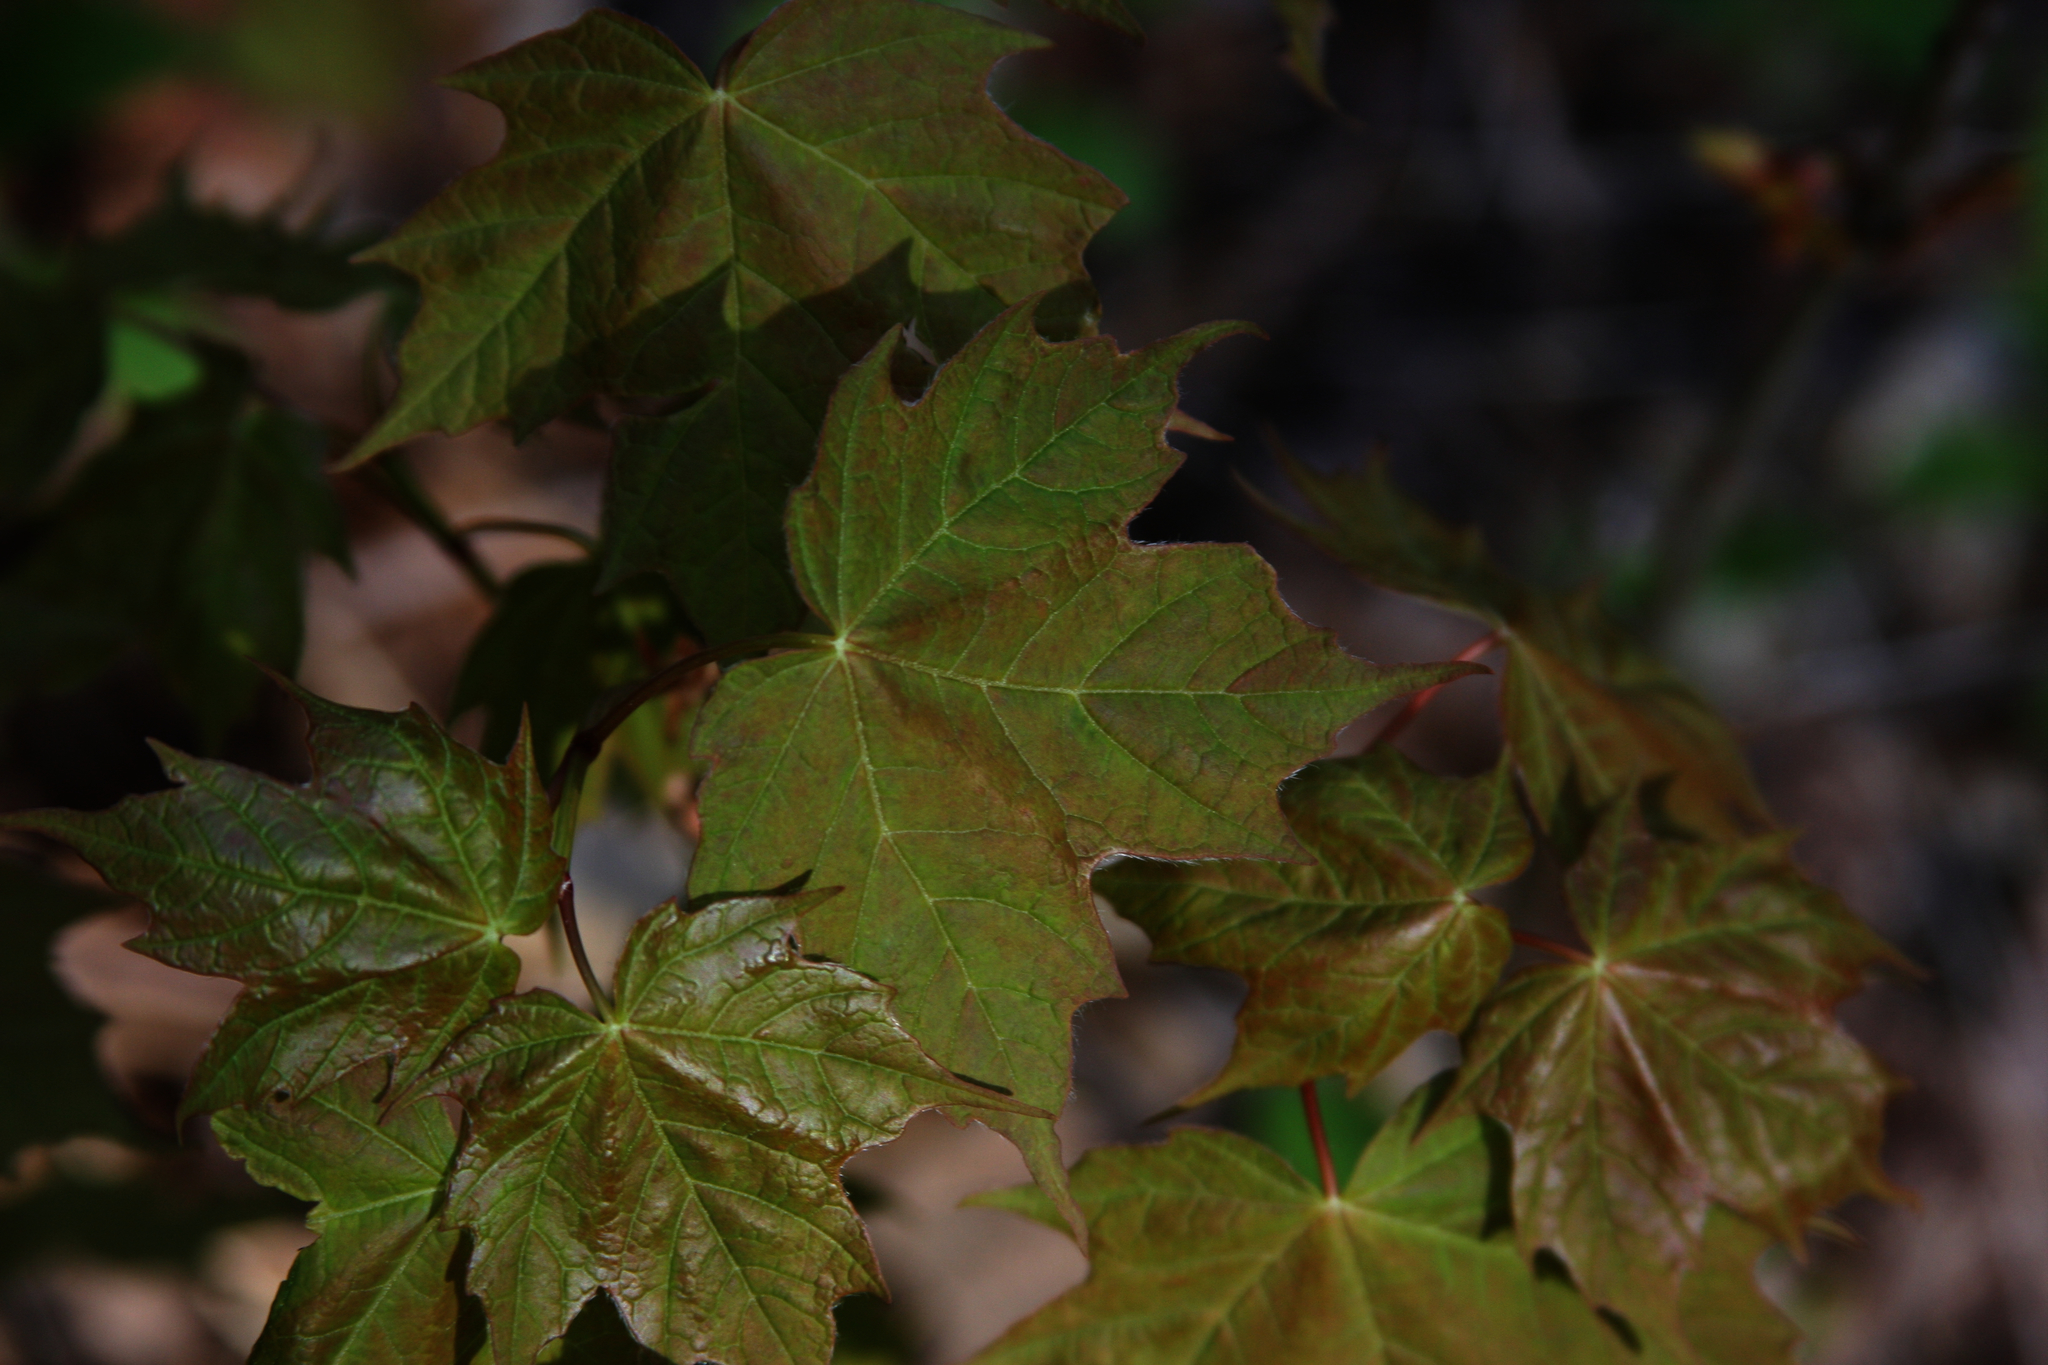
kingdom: Plantae
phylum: Tracheophyta
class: Magnoliopsida
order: Sapindales
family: Sapindaceae
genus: Acer
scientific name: Acer platanoides
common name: Norway maple
